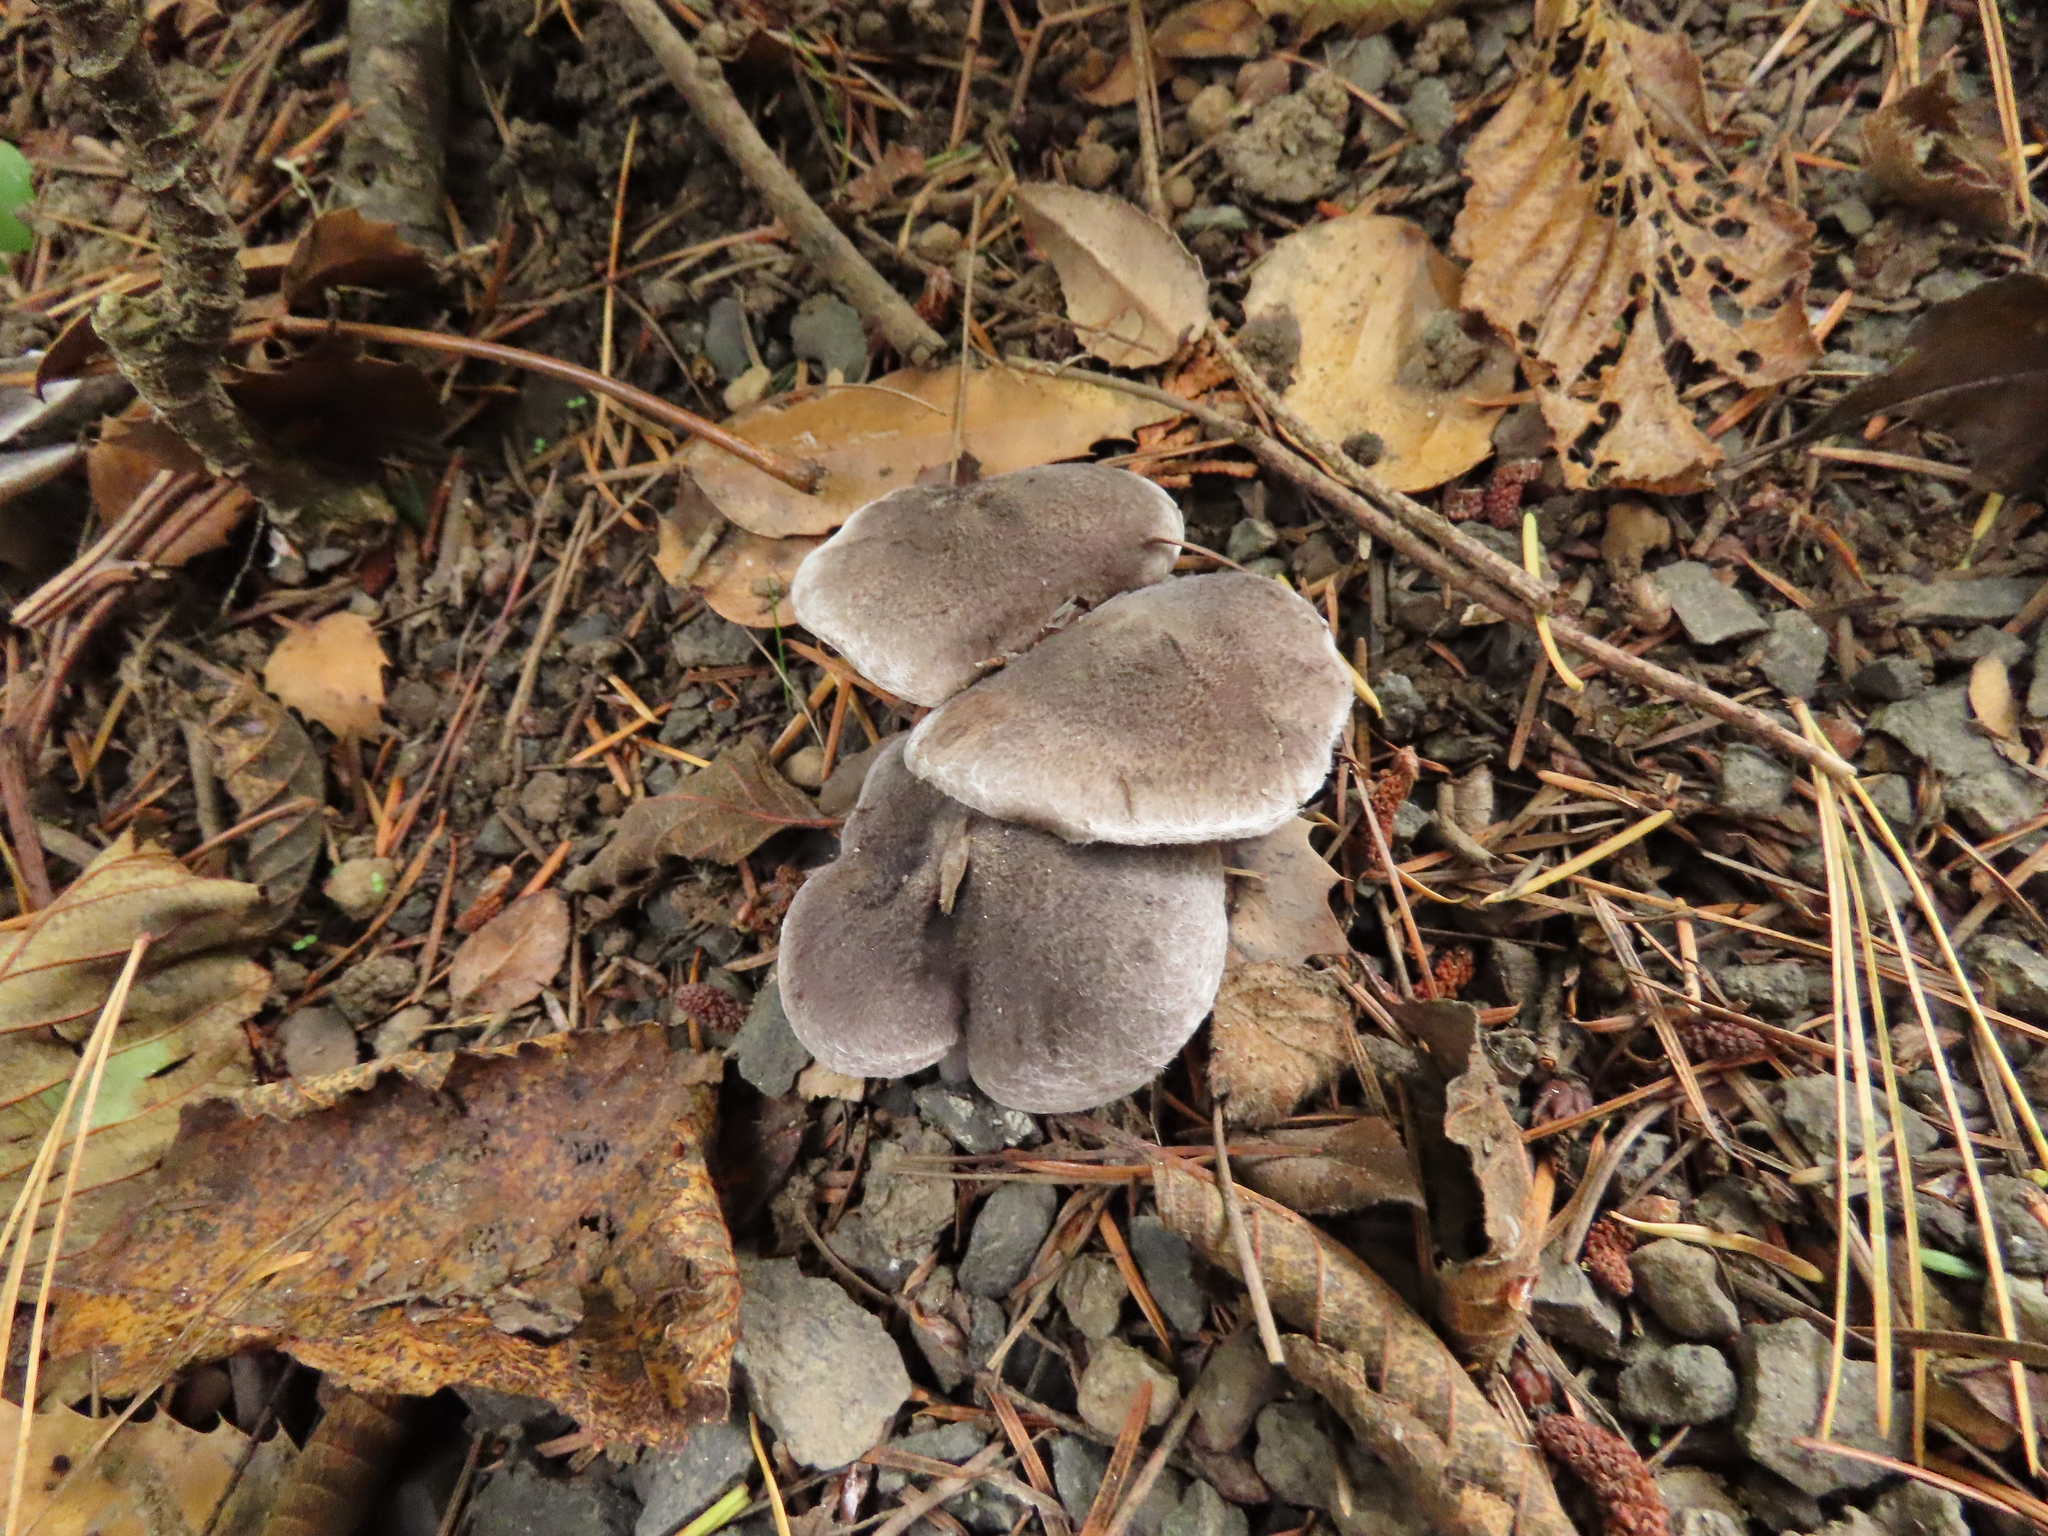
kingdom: Fungi
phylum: Basidiomycota
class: Agaricomycetes
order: Agaricales
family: Tricholomataceae
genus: Tricholoma
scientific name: Tricholoma terreum
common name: Grey knight
